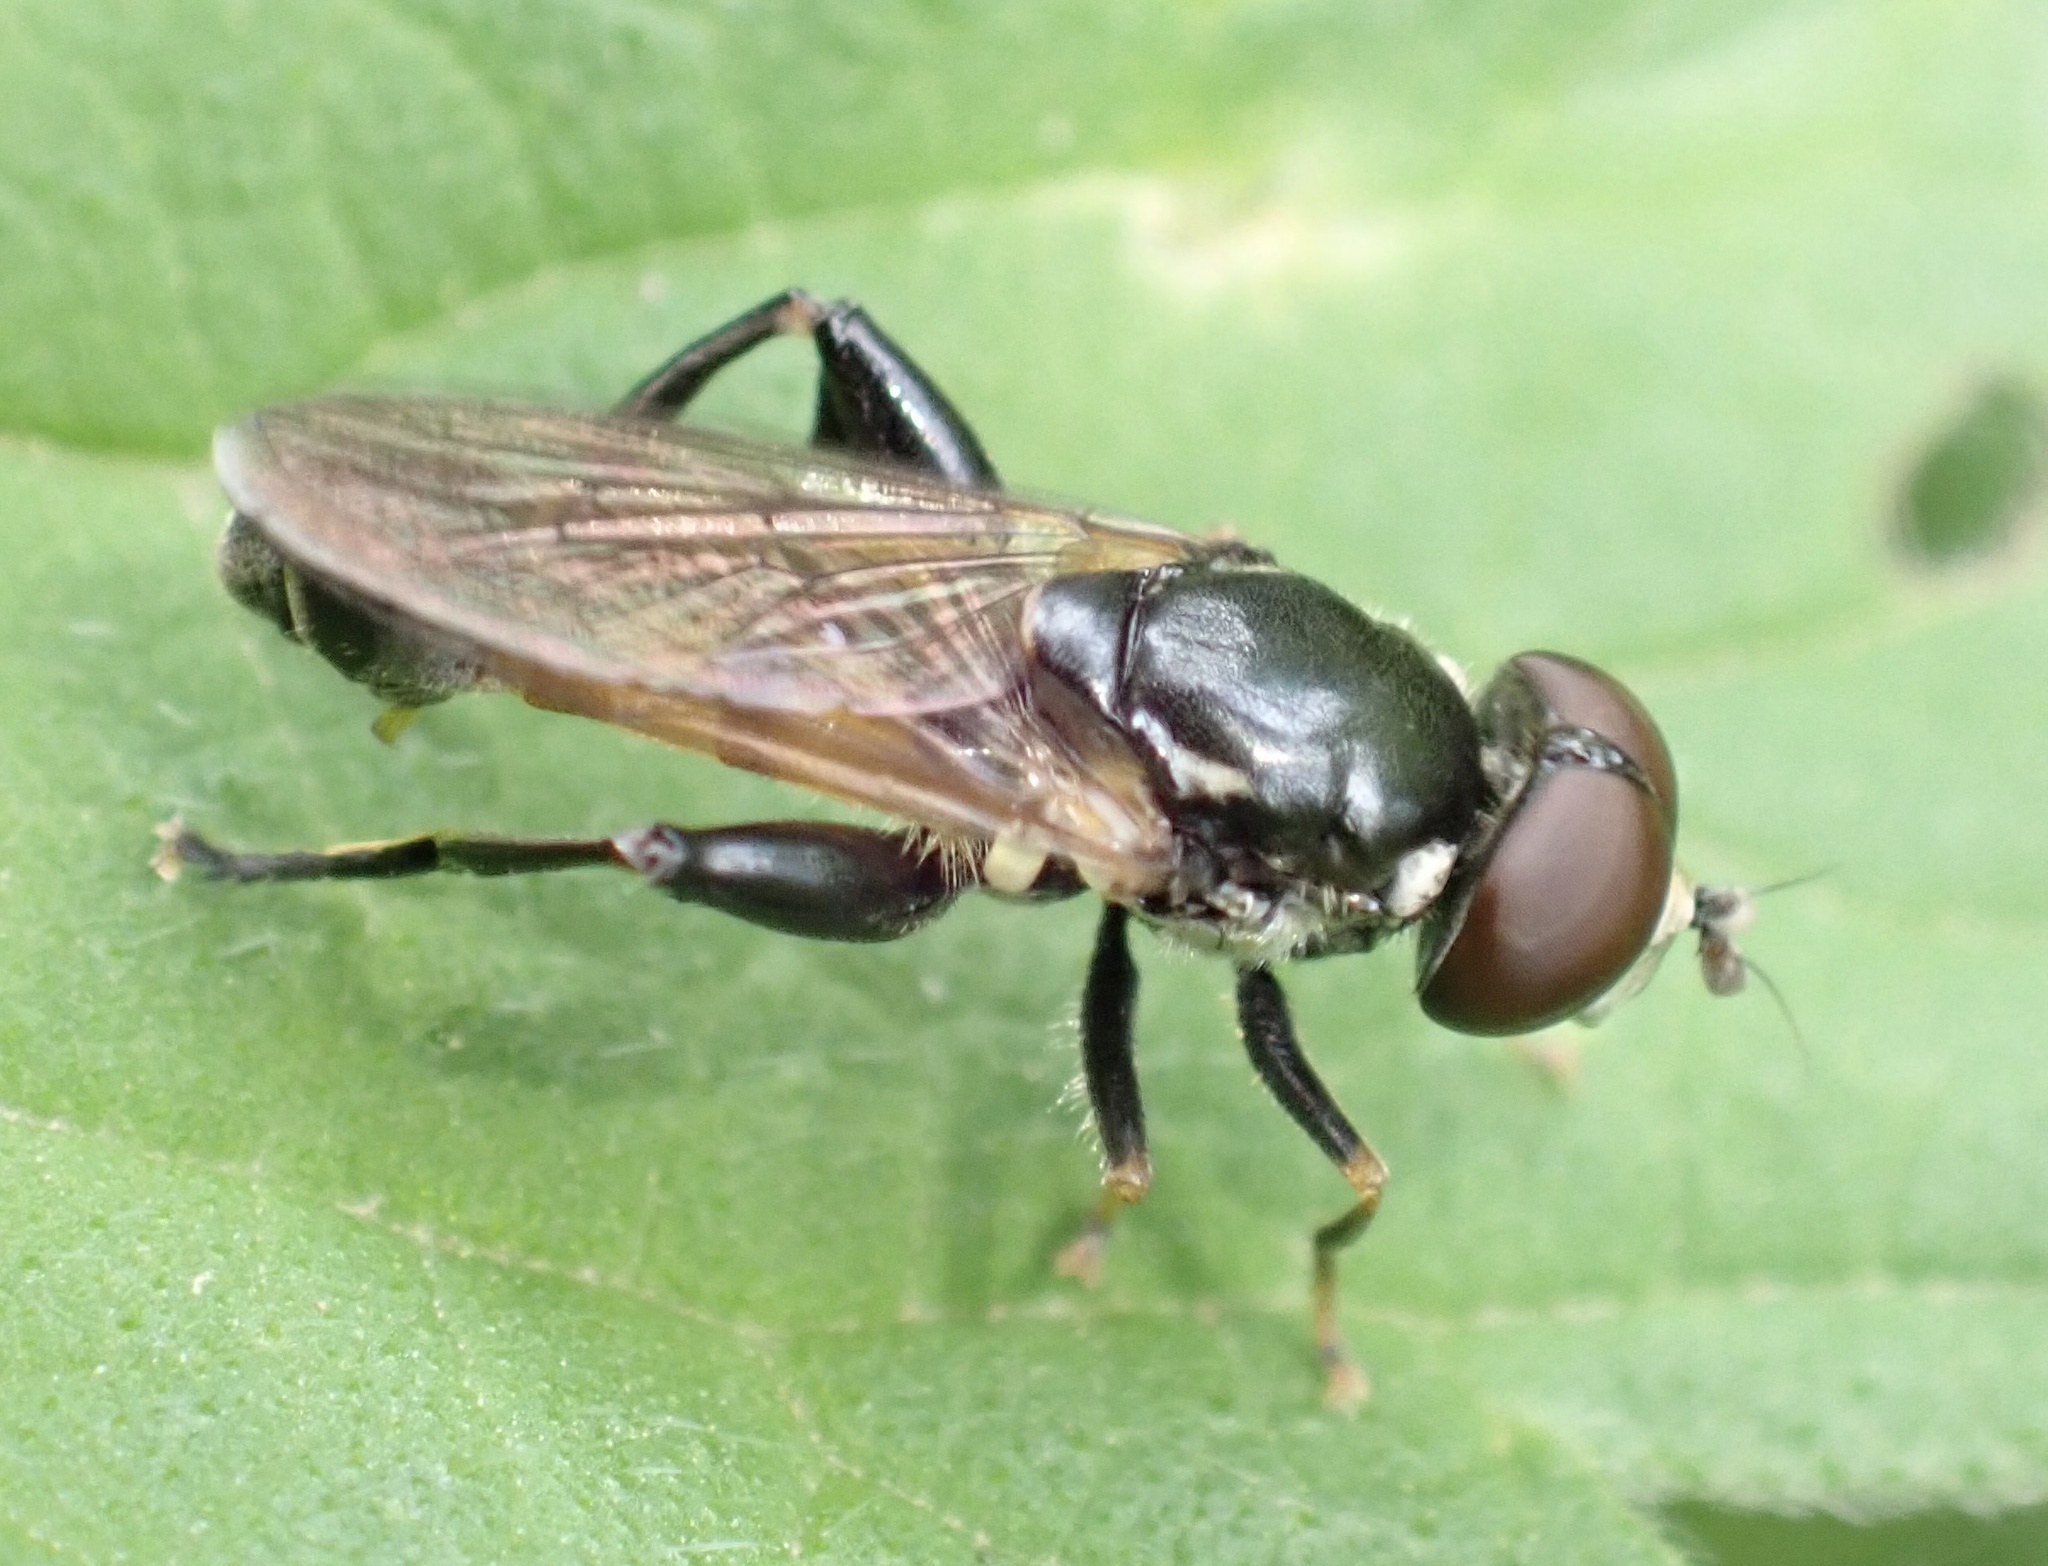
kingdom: Animalia
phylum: Arthropoda
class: Insecta
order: Diptera
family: Syrphidae
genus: Tropidia
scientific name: Tropidia scita
